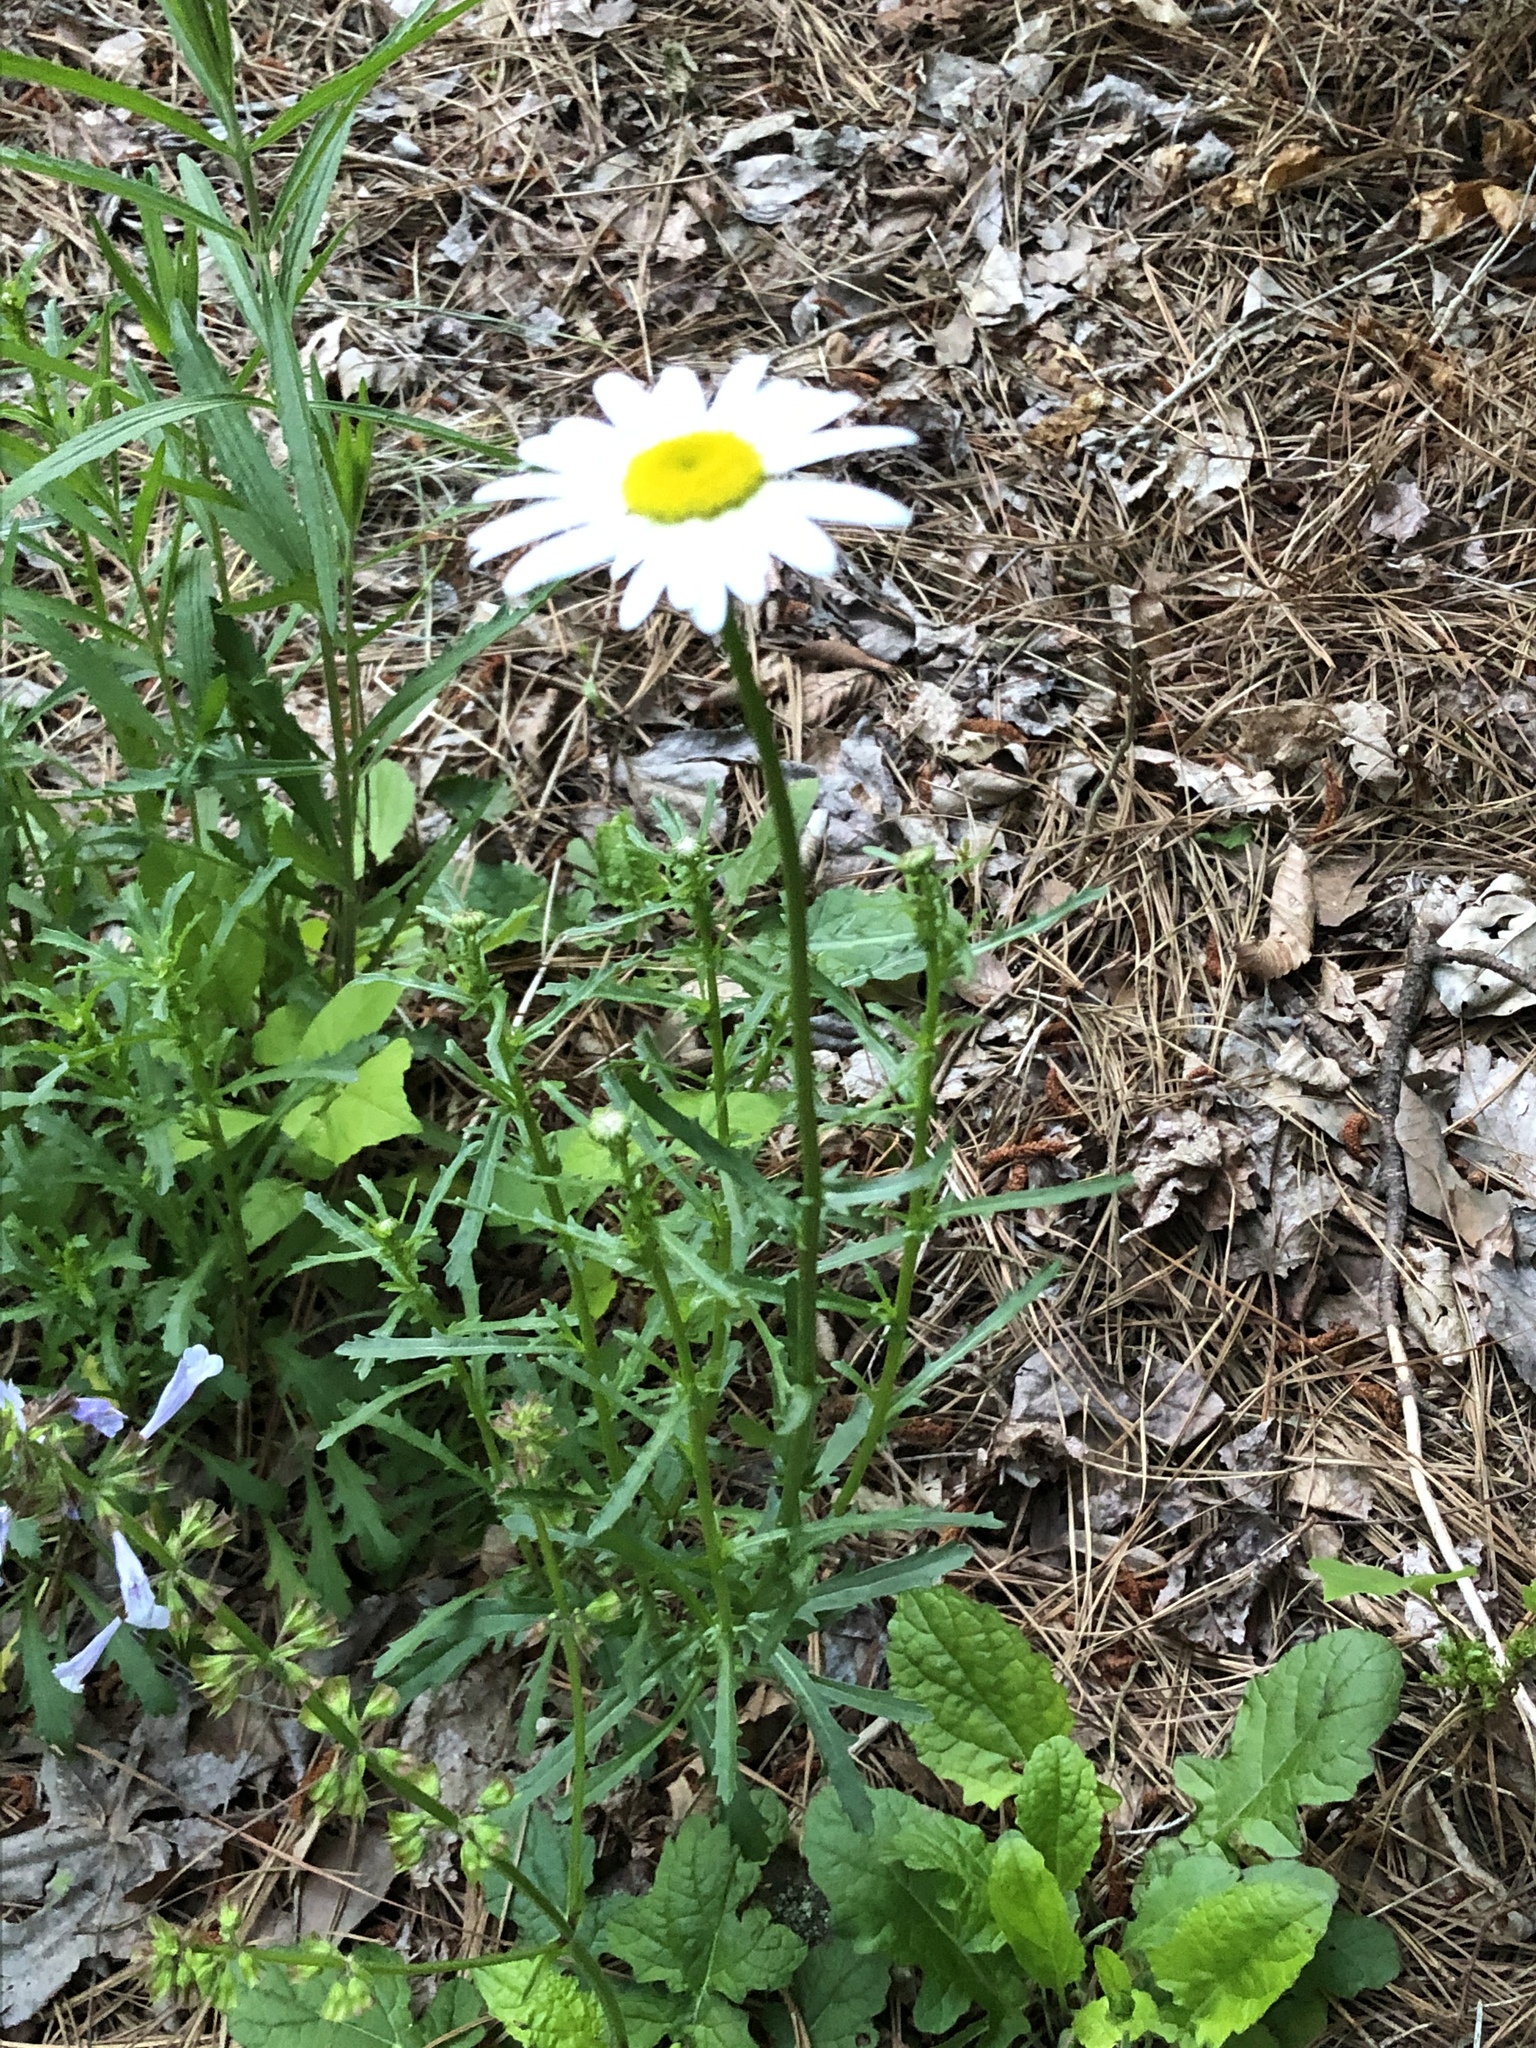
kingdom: Plantae
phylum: Tracheophyta
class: Magnoliopsida
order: Asterales
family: Asteraceae
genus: Leucanthemum
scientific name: Leucanthemum vulgare
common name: Oxeye daisy
